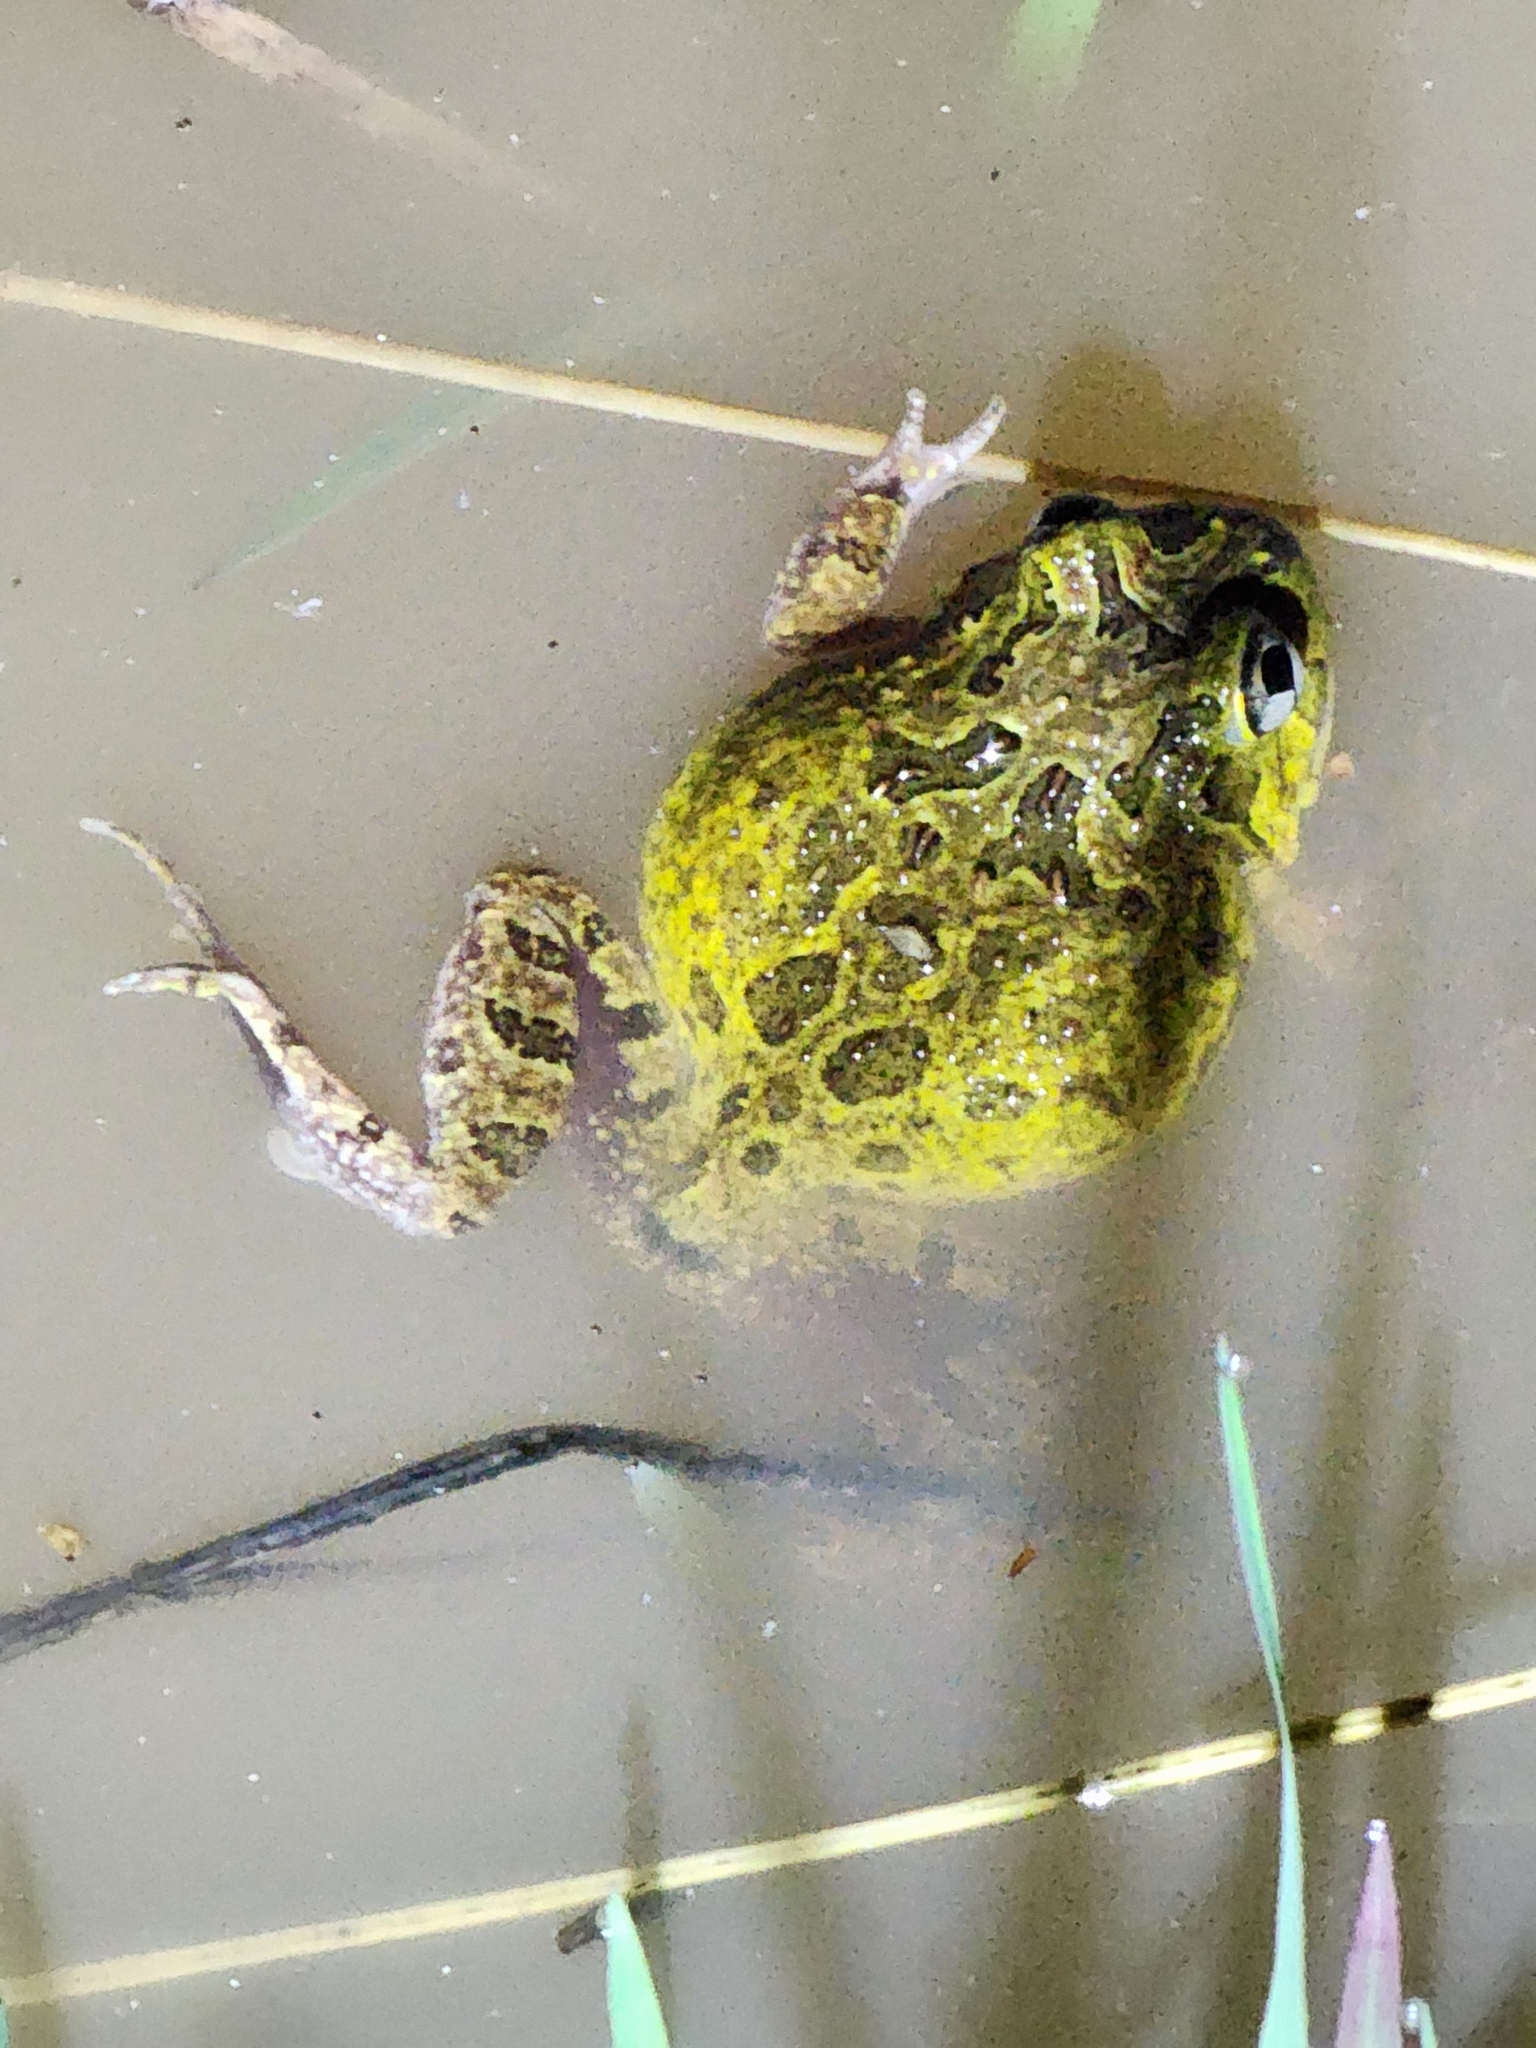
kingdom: Animalia
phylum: Chordata
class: Amphibia
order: Anura
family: Limnodynastidae
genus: Platyplectrum
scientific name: Platyplectrum ornatum
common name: Ornate burrowing frog
